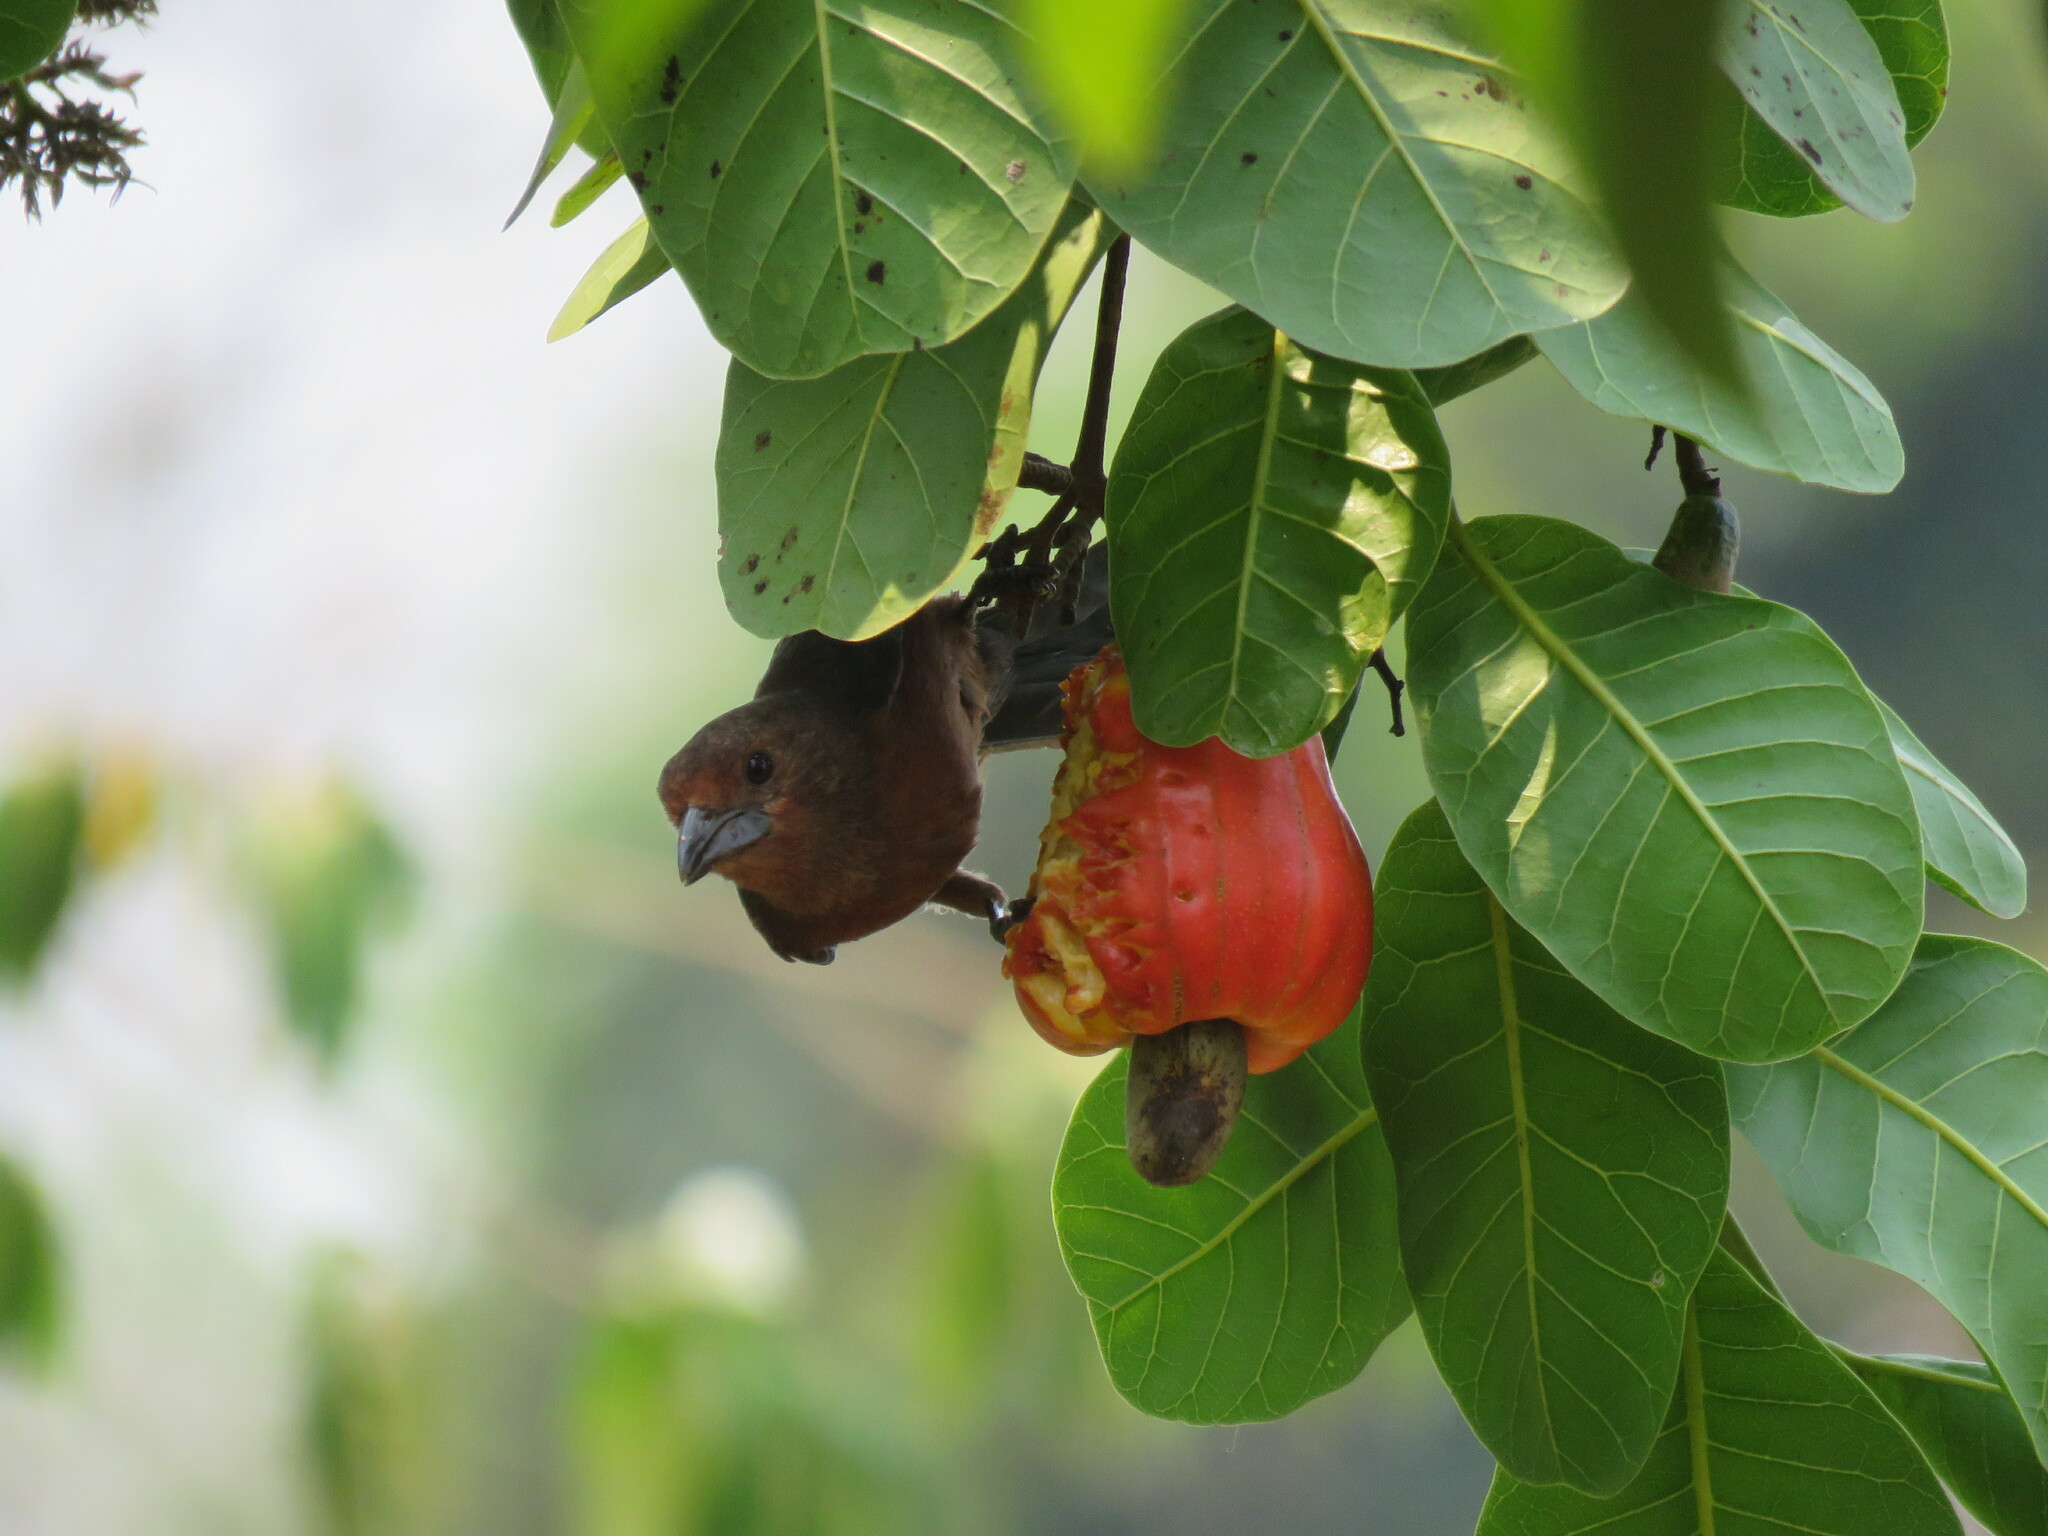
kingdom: Animalia
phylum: Chordata
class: Aves
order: Passeriformes
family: Thraupidae
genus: Ramphocelus
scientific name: Ramphocelus carbo
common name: Silver-beaked tanager
